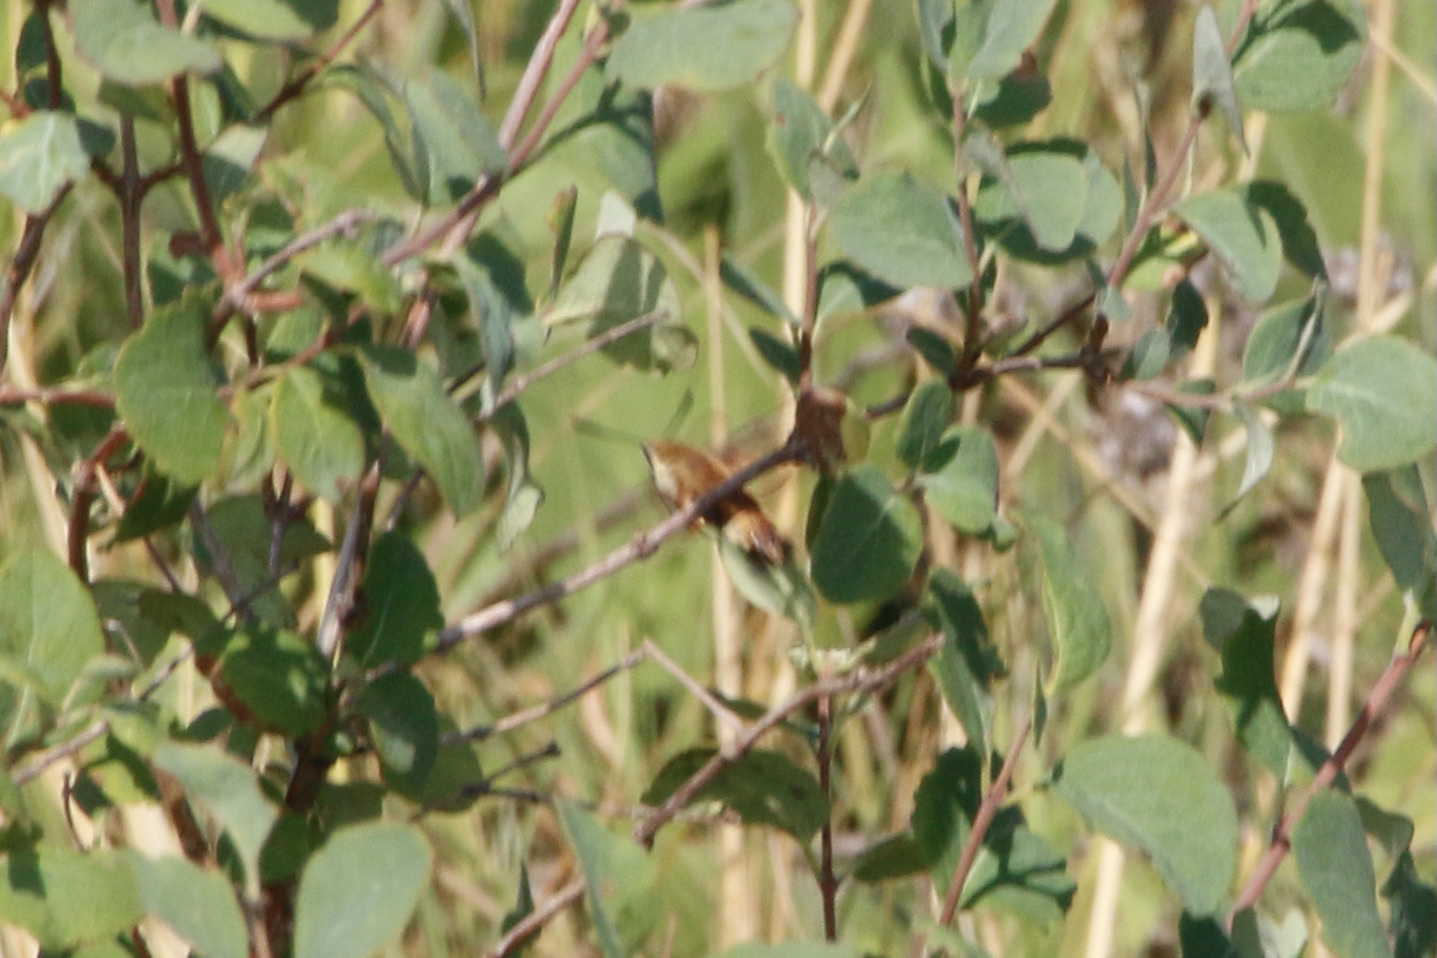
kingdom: Animalia
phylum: Arthropoda
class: Insecta
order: Lepidoptera
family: Sphingidae
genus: Hemaris
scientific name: Hemaris diffinis
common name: Bumblebee moth
